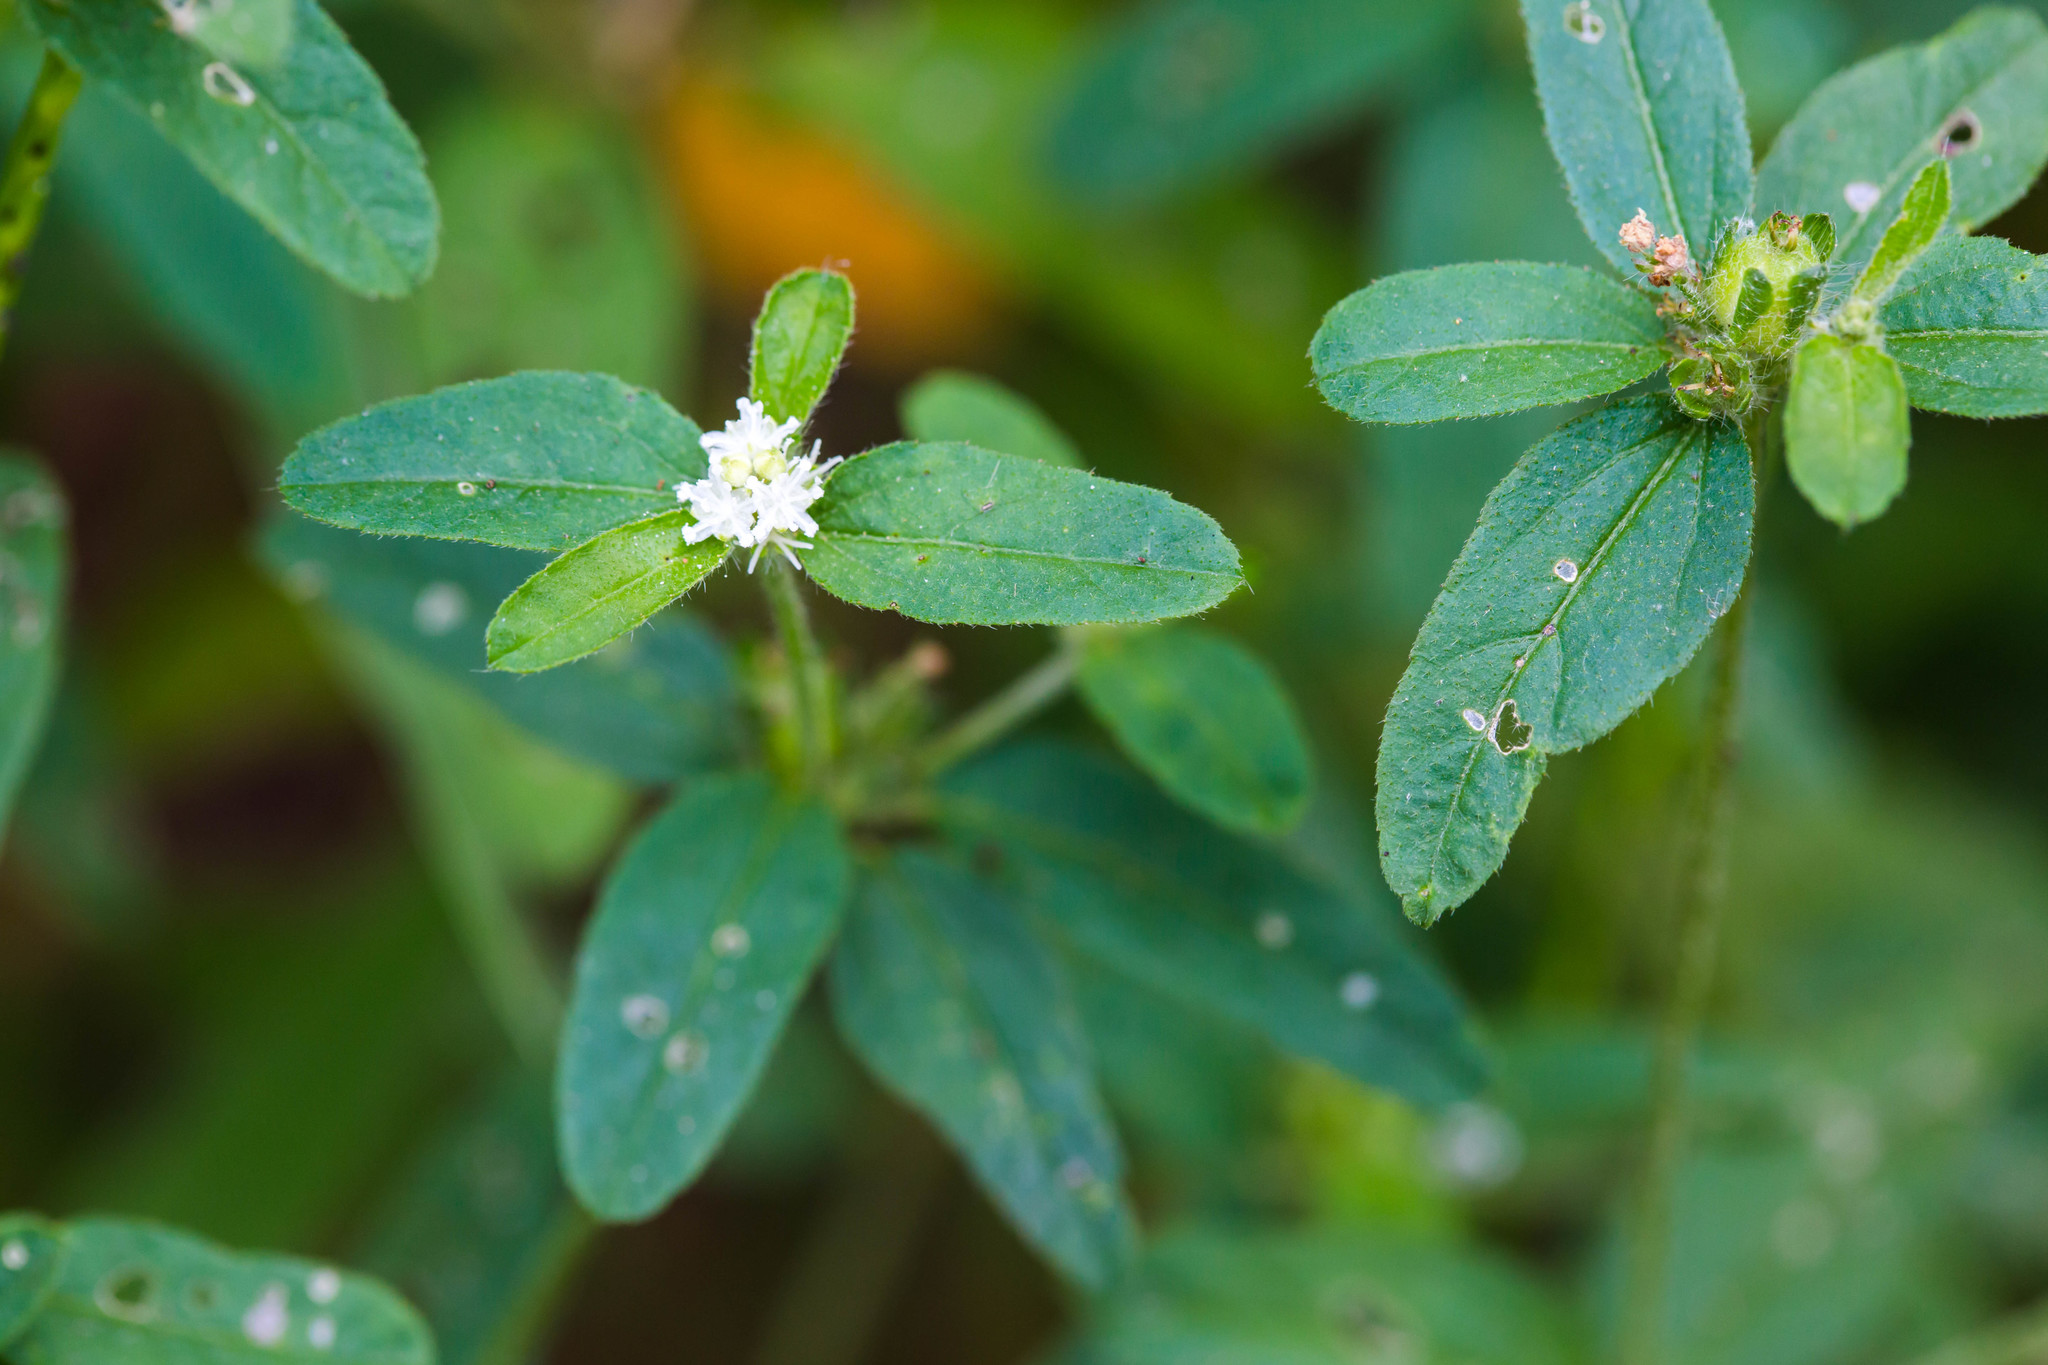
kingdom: Plantae
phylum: Tracheophyta
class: Magnoliopsida
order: Malpighiales
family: Euphorbiaceae
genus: Croton
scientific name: Croton glandulosus
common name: Tropic croton
